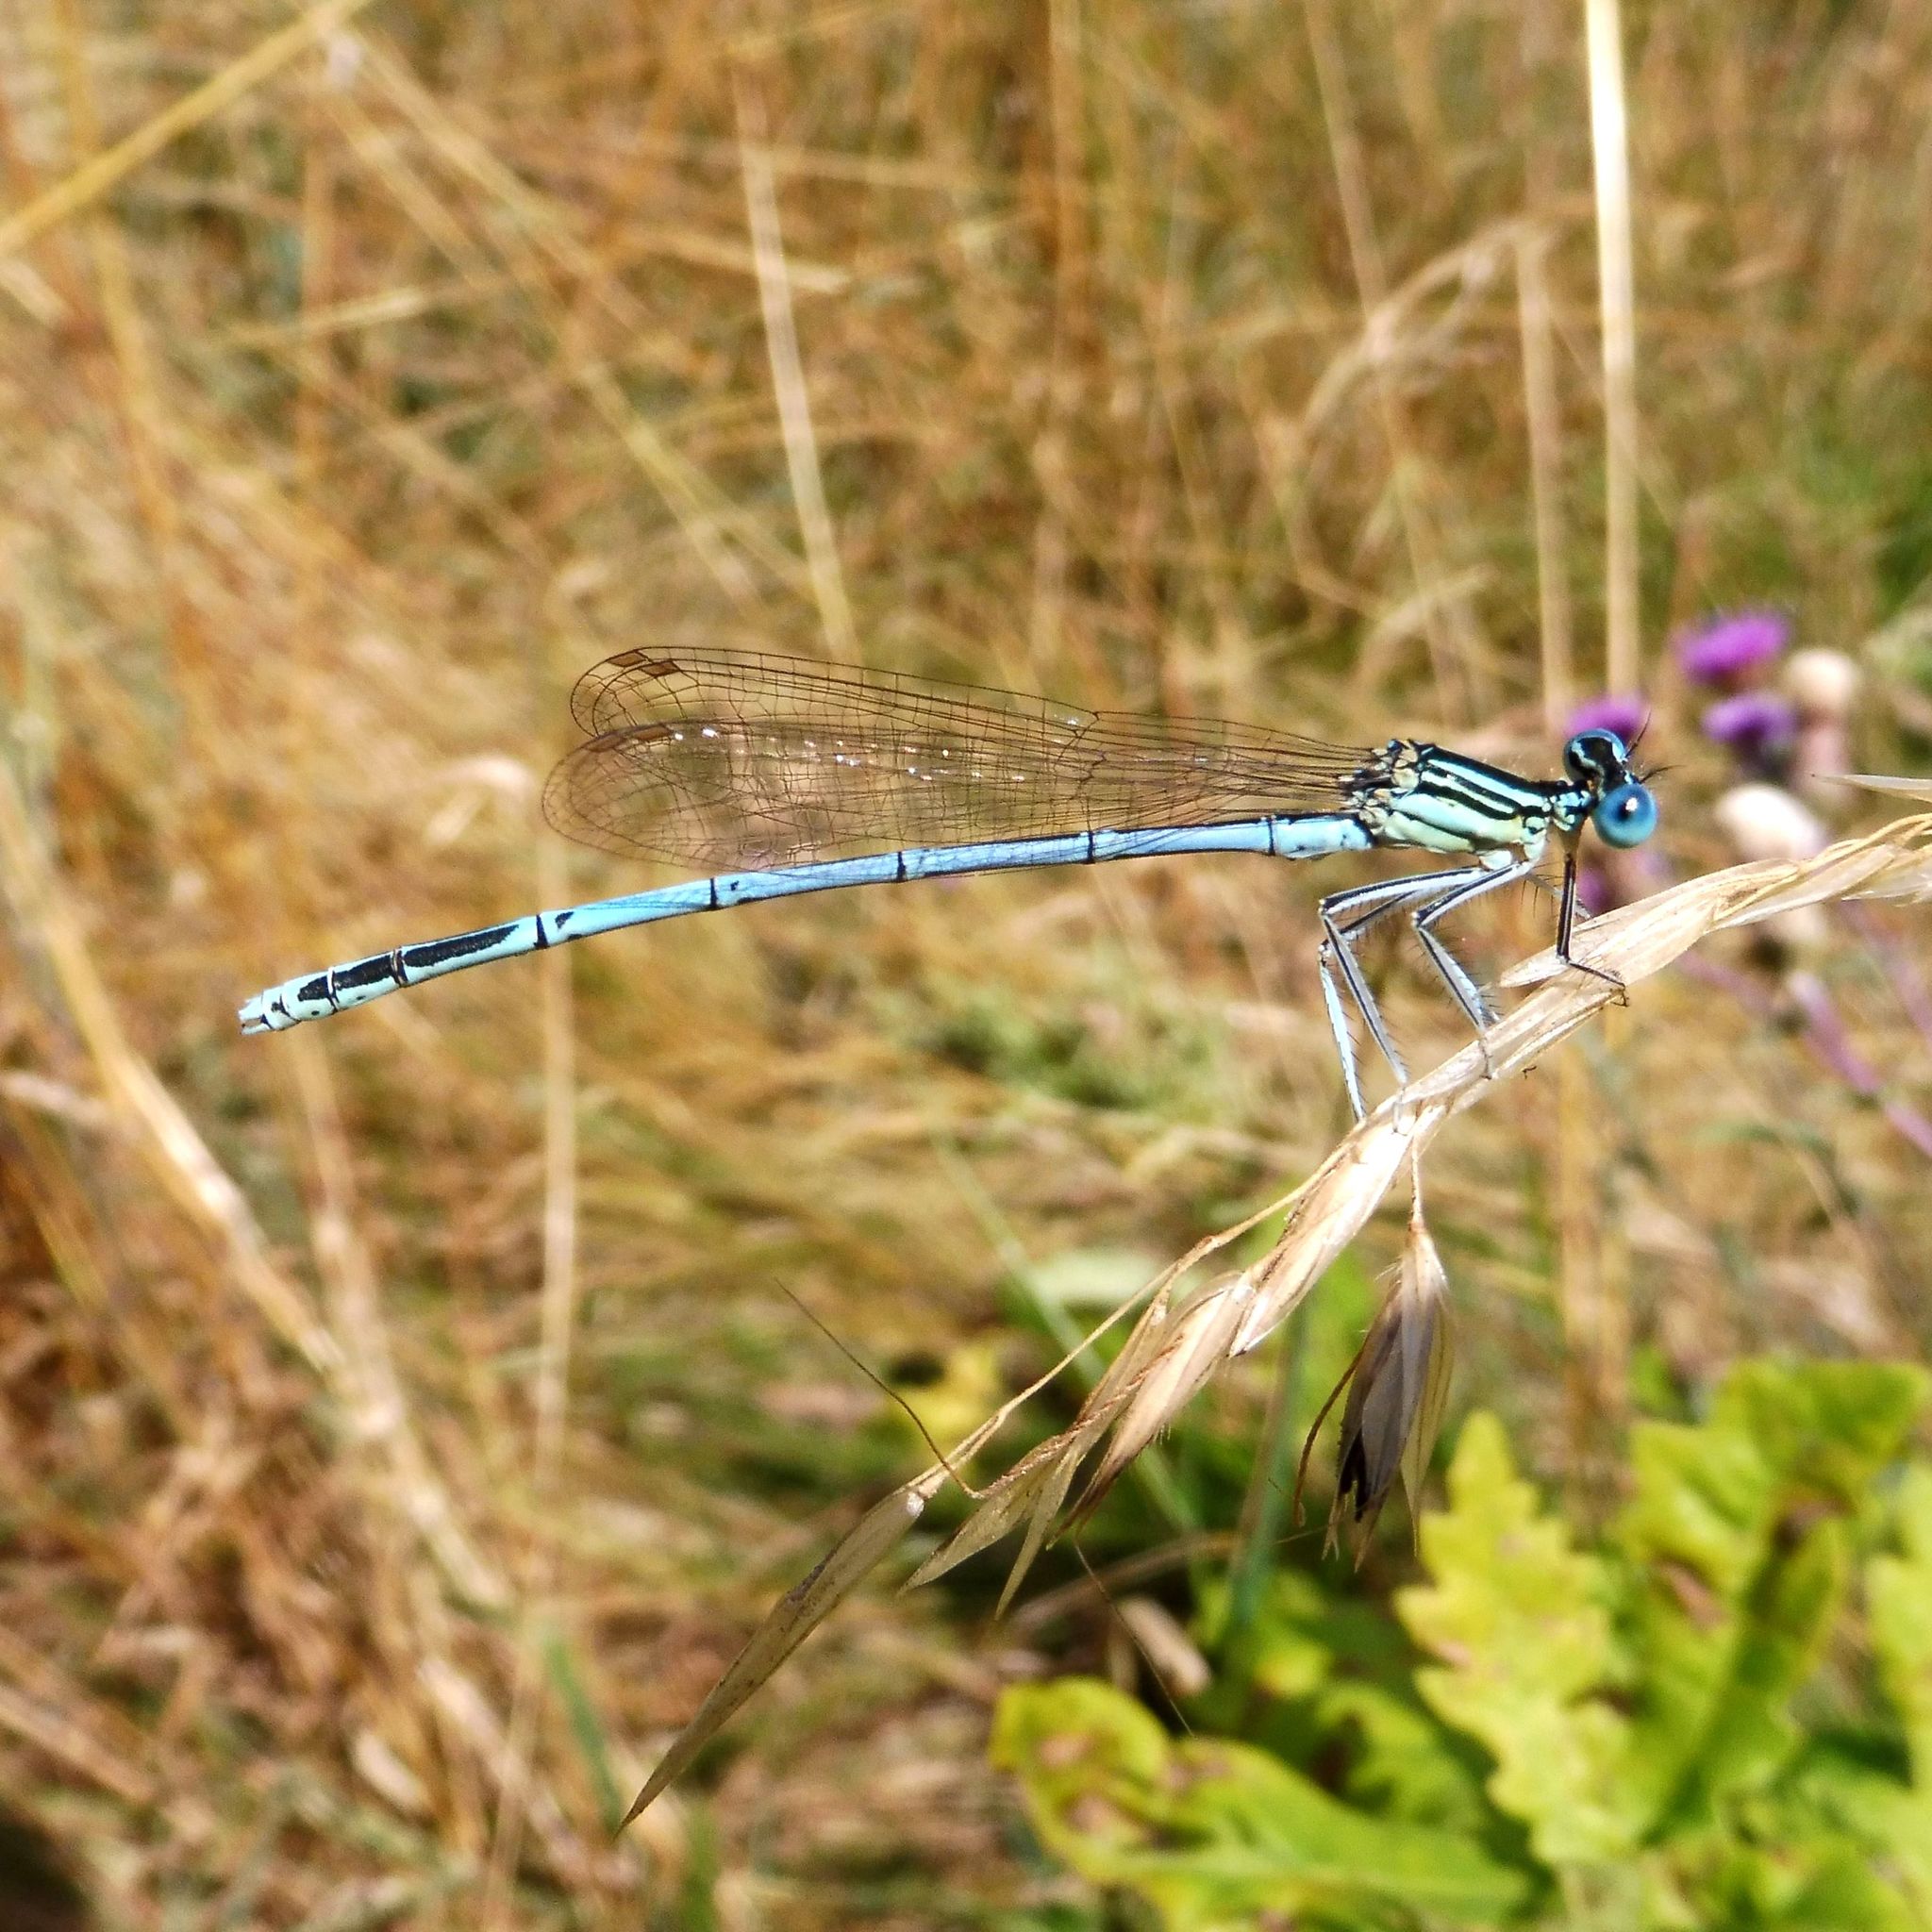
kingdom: Animalia
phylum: Arthropoda
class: Insecta
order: Odonata
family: Platycnemididae
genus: Platycnemis
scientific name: Platycnemis pennipes
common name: White-legged damselfly
